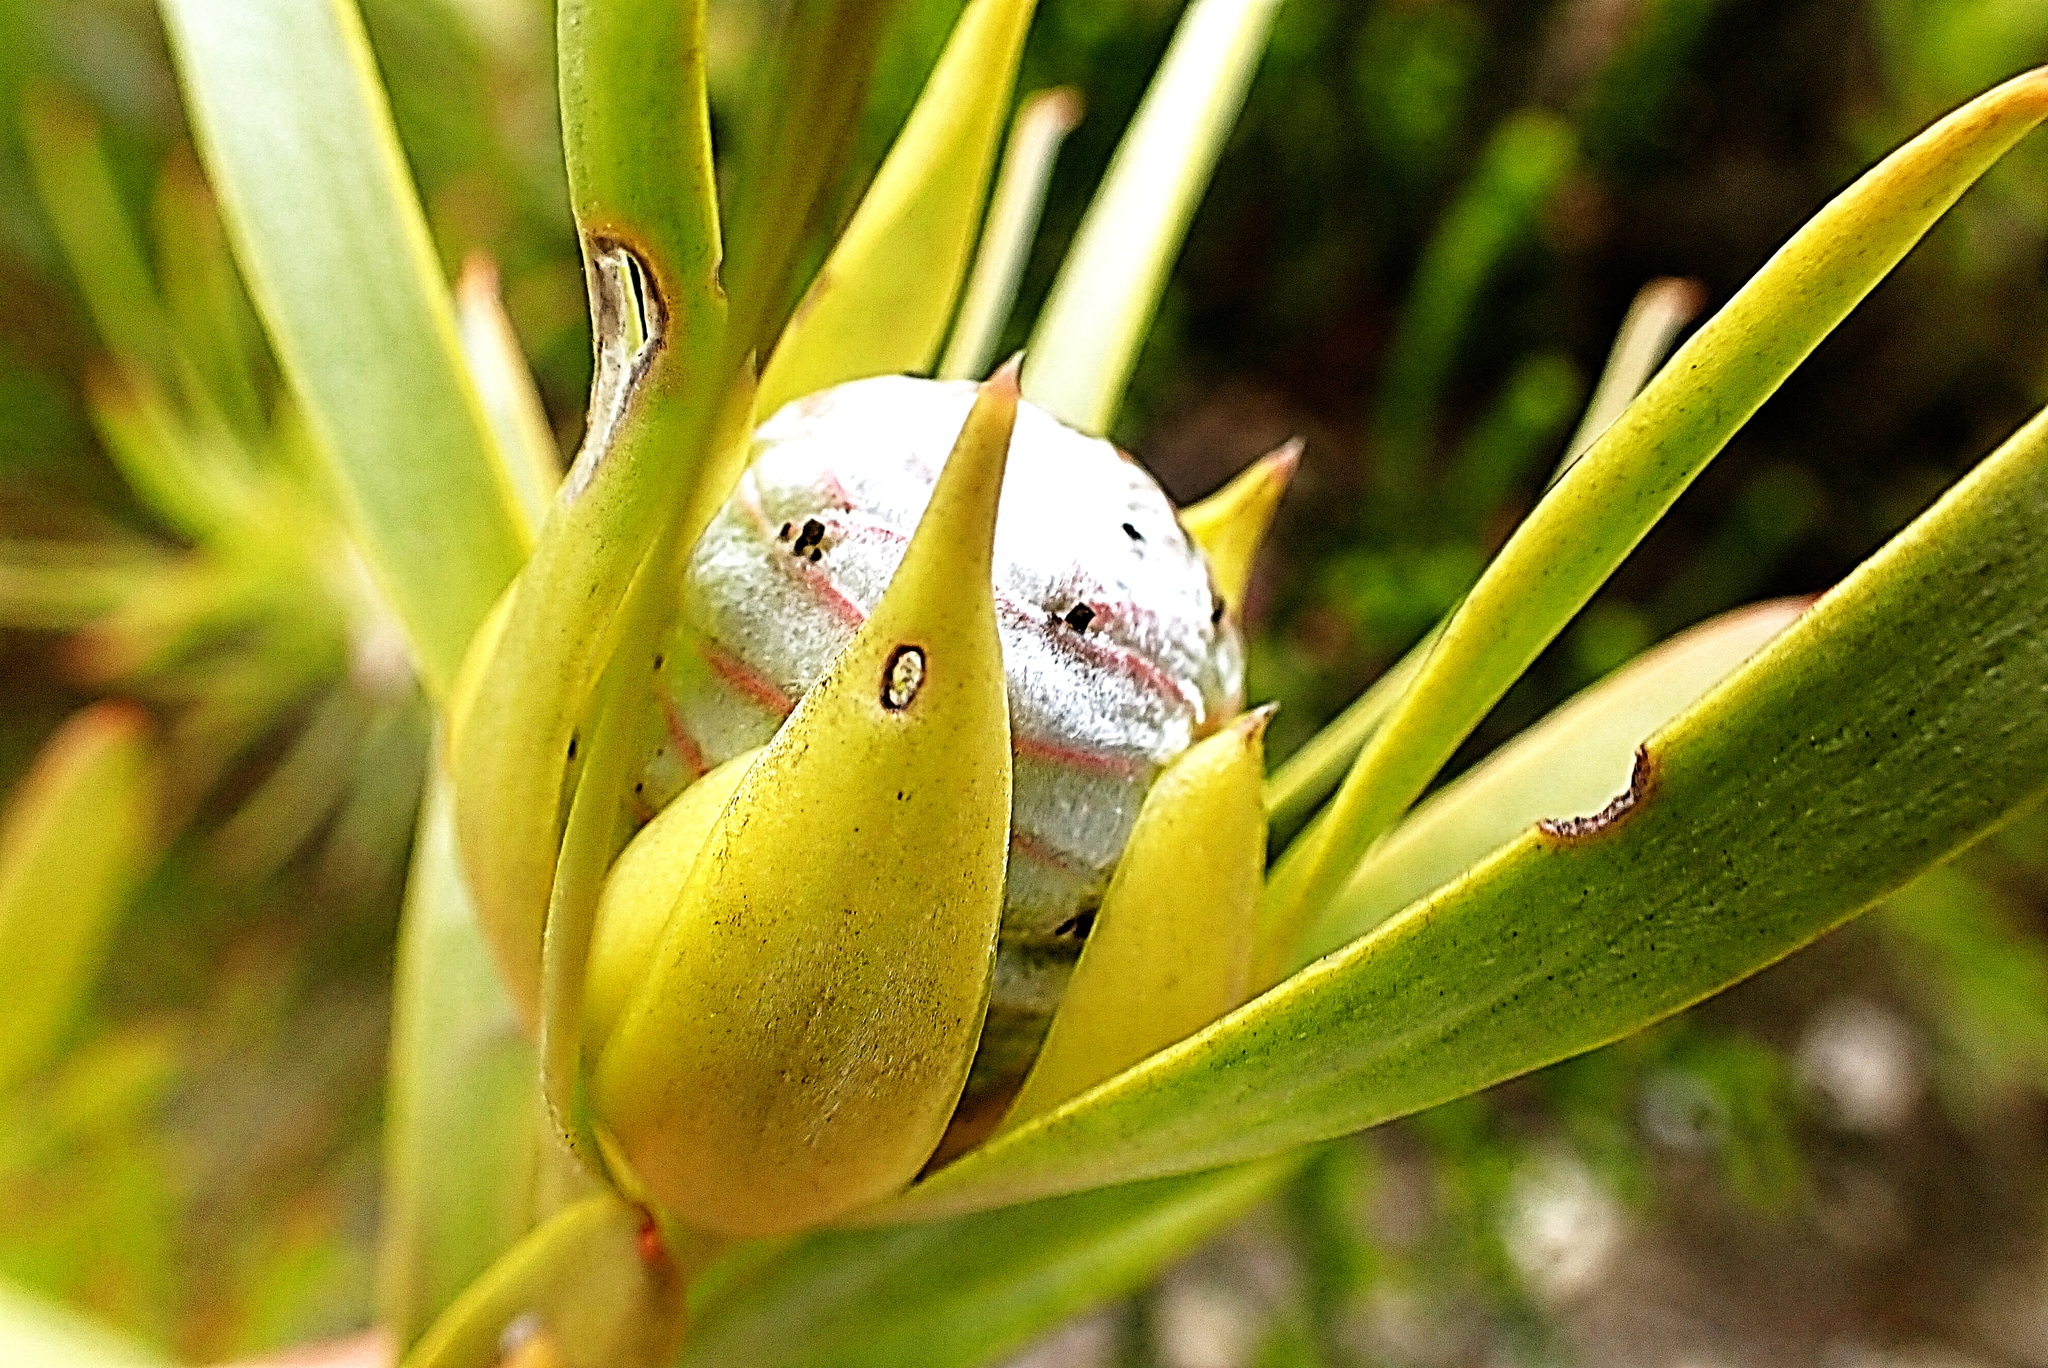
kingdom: Plantae
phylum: Tracheophyta
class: Magnoliopsida
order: Proteales
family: Proteaceae
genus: Leucadendron
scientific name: Leucadendron meridianum
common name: Limestone conebush
